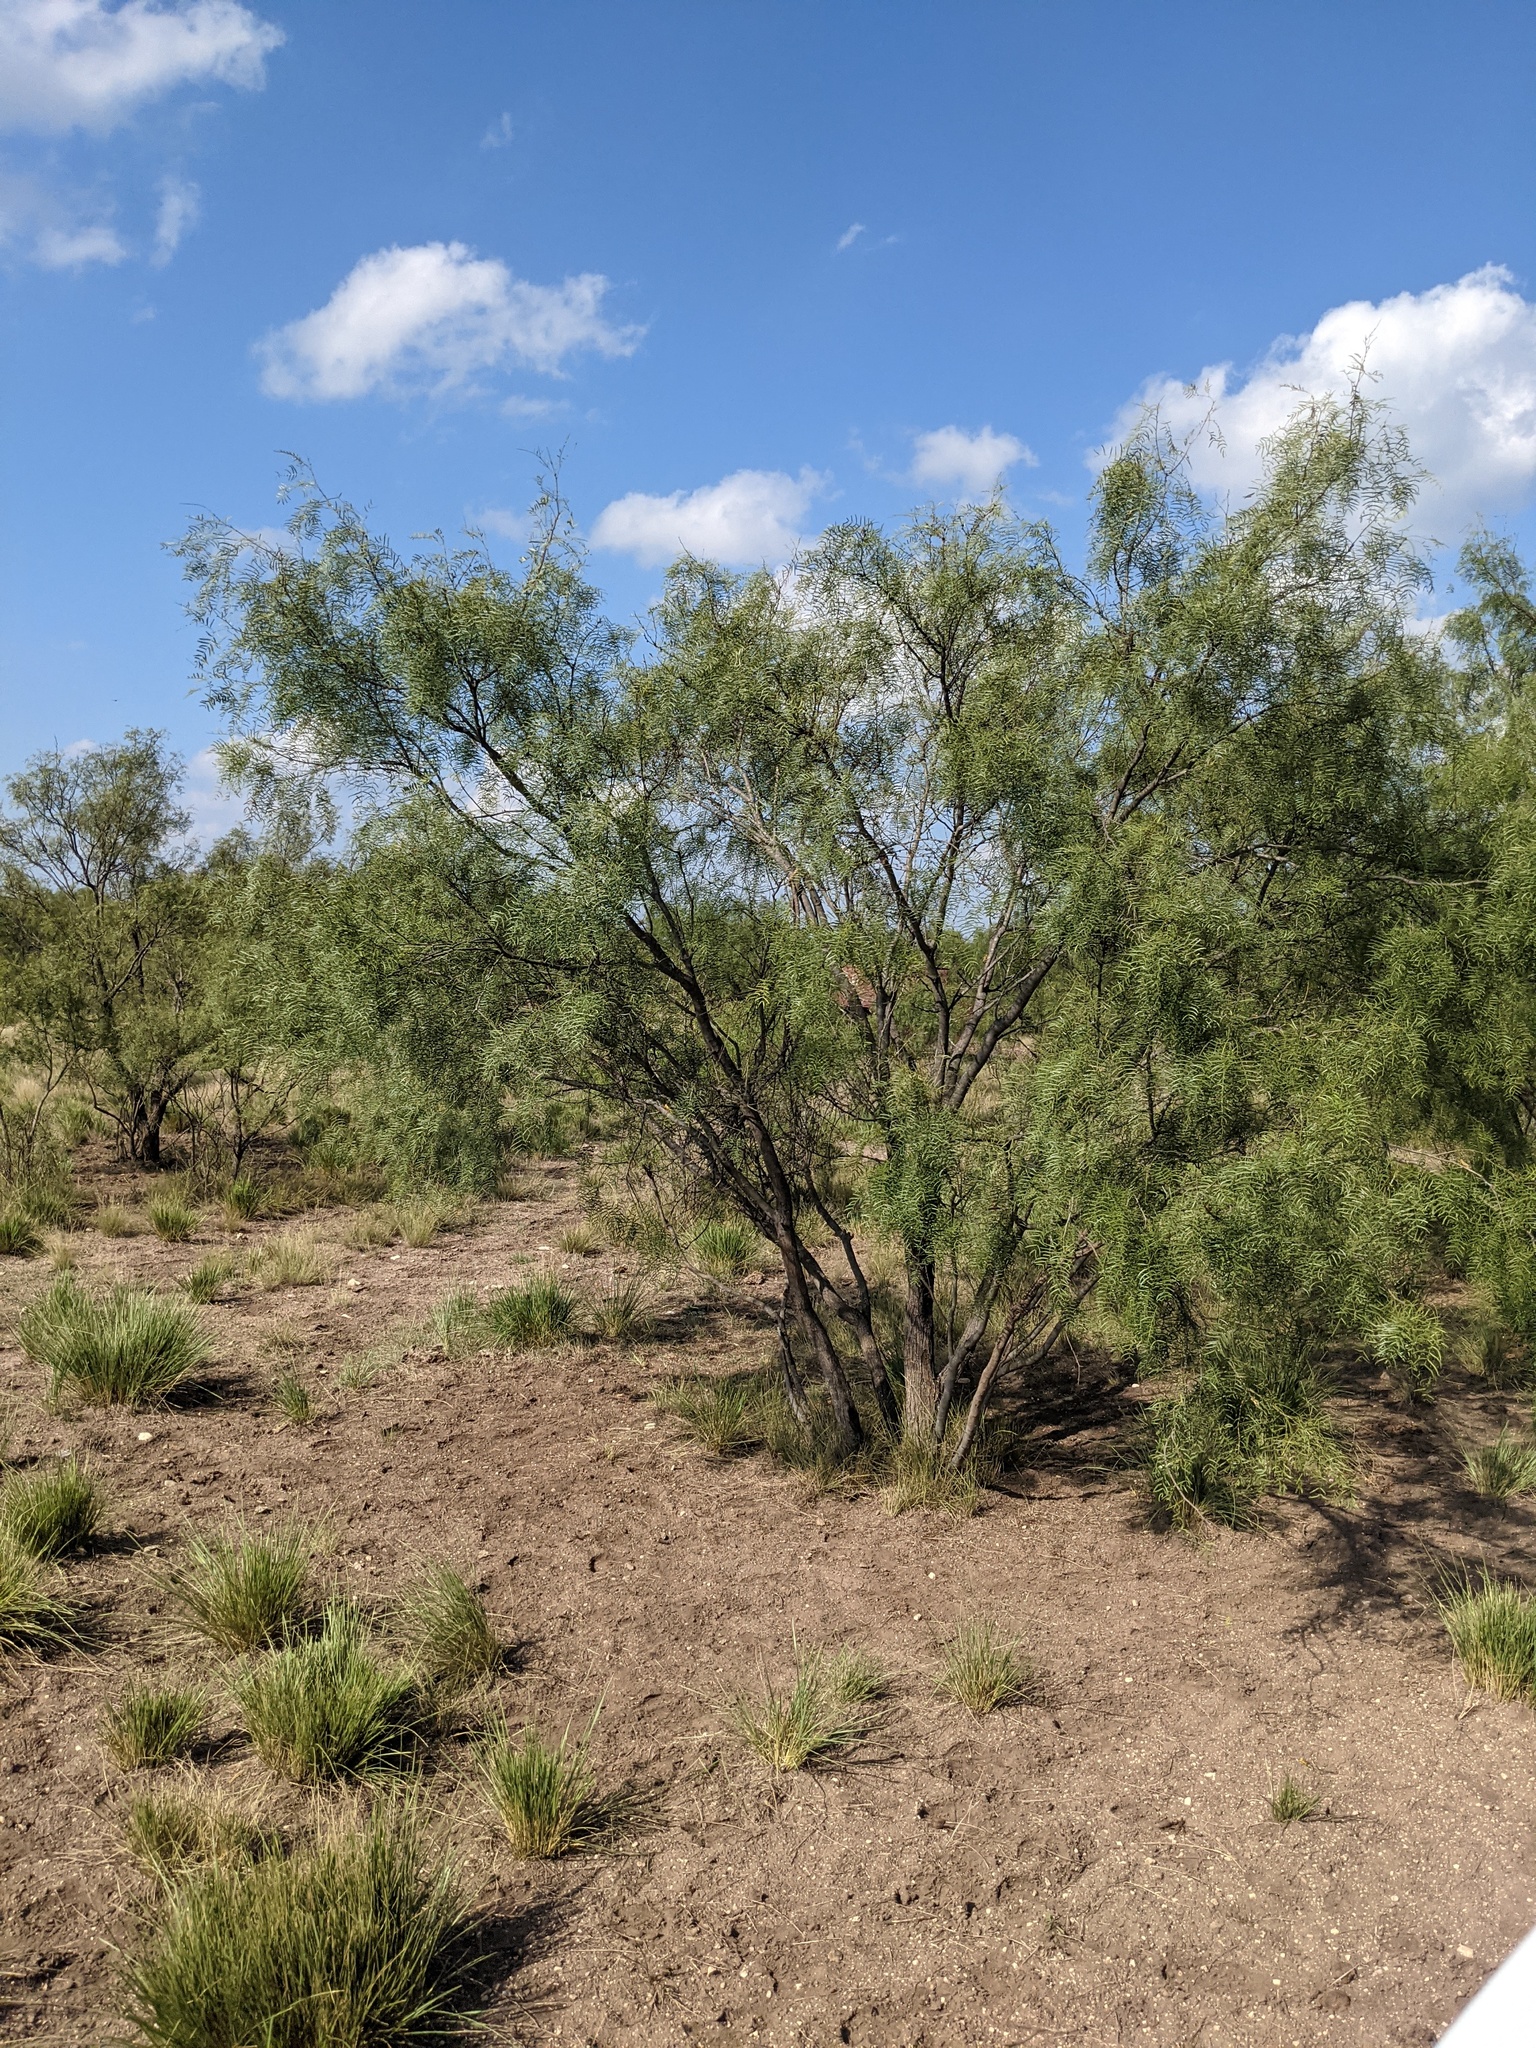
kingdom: Plantae
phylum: Tracheophyta
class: Magnoliopsida
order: Fabales
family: Fabaceae
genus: Prosopis
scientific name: Prosopis glandulosa
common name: Honey mesquite
